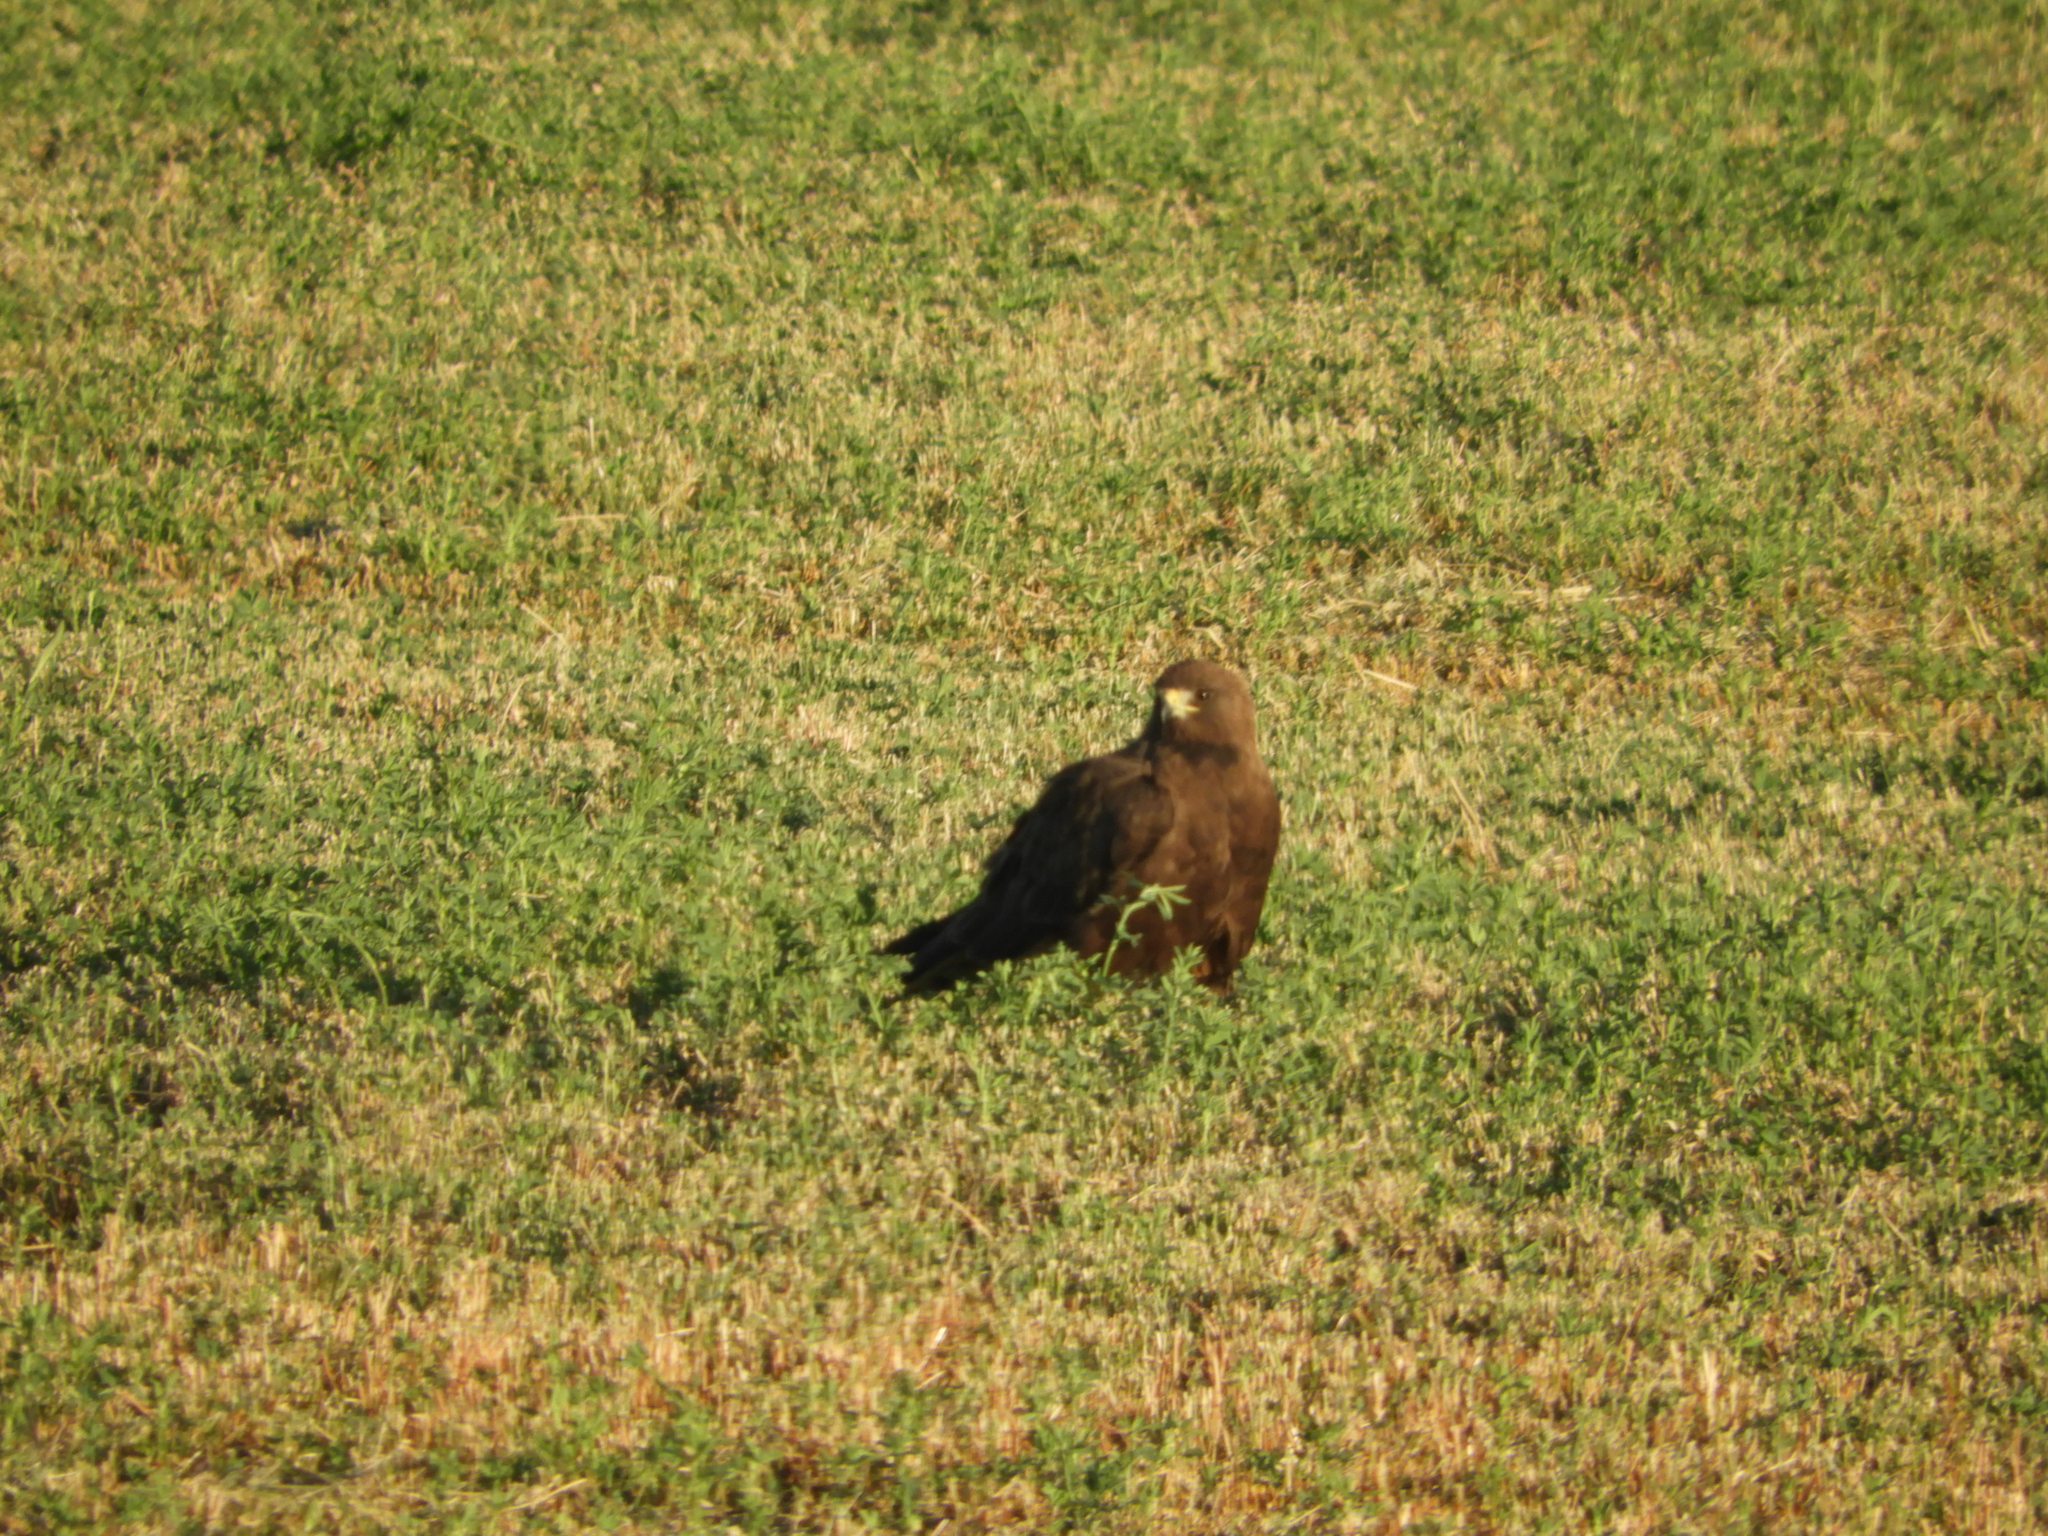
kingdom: Animalia
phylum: Chordata
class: Aves
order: Accipitriformes
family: Accipitridae
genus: Buteo
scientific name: Buteo swainsoni
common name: Swainson's hawk
